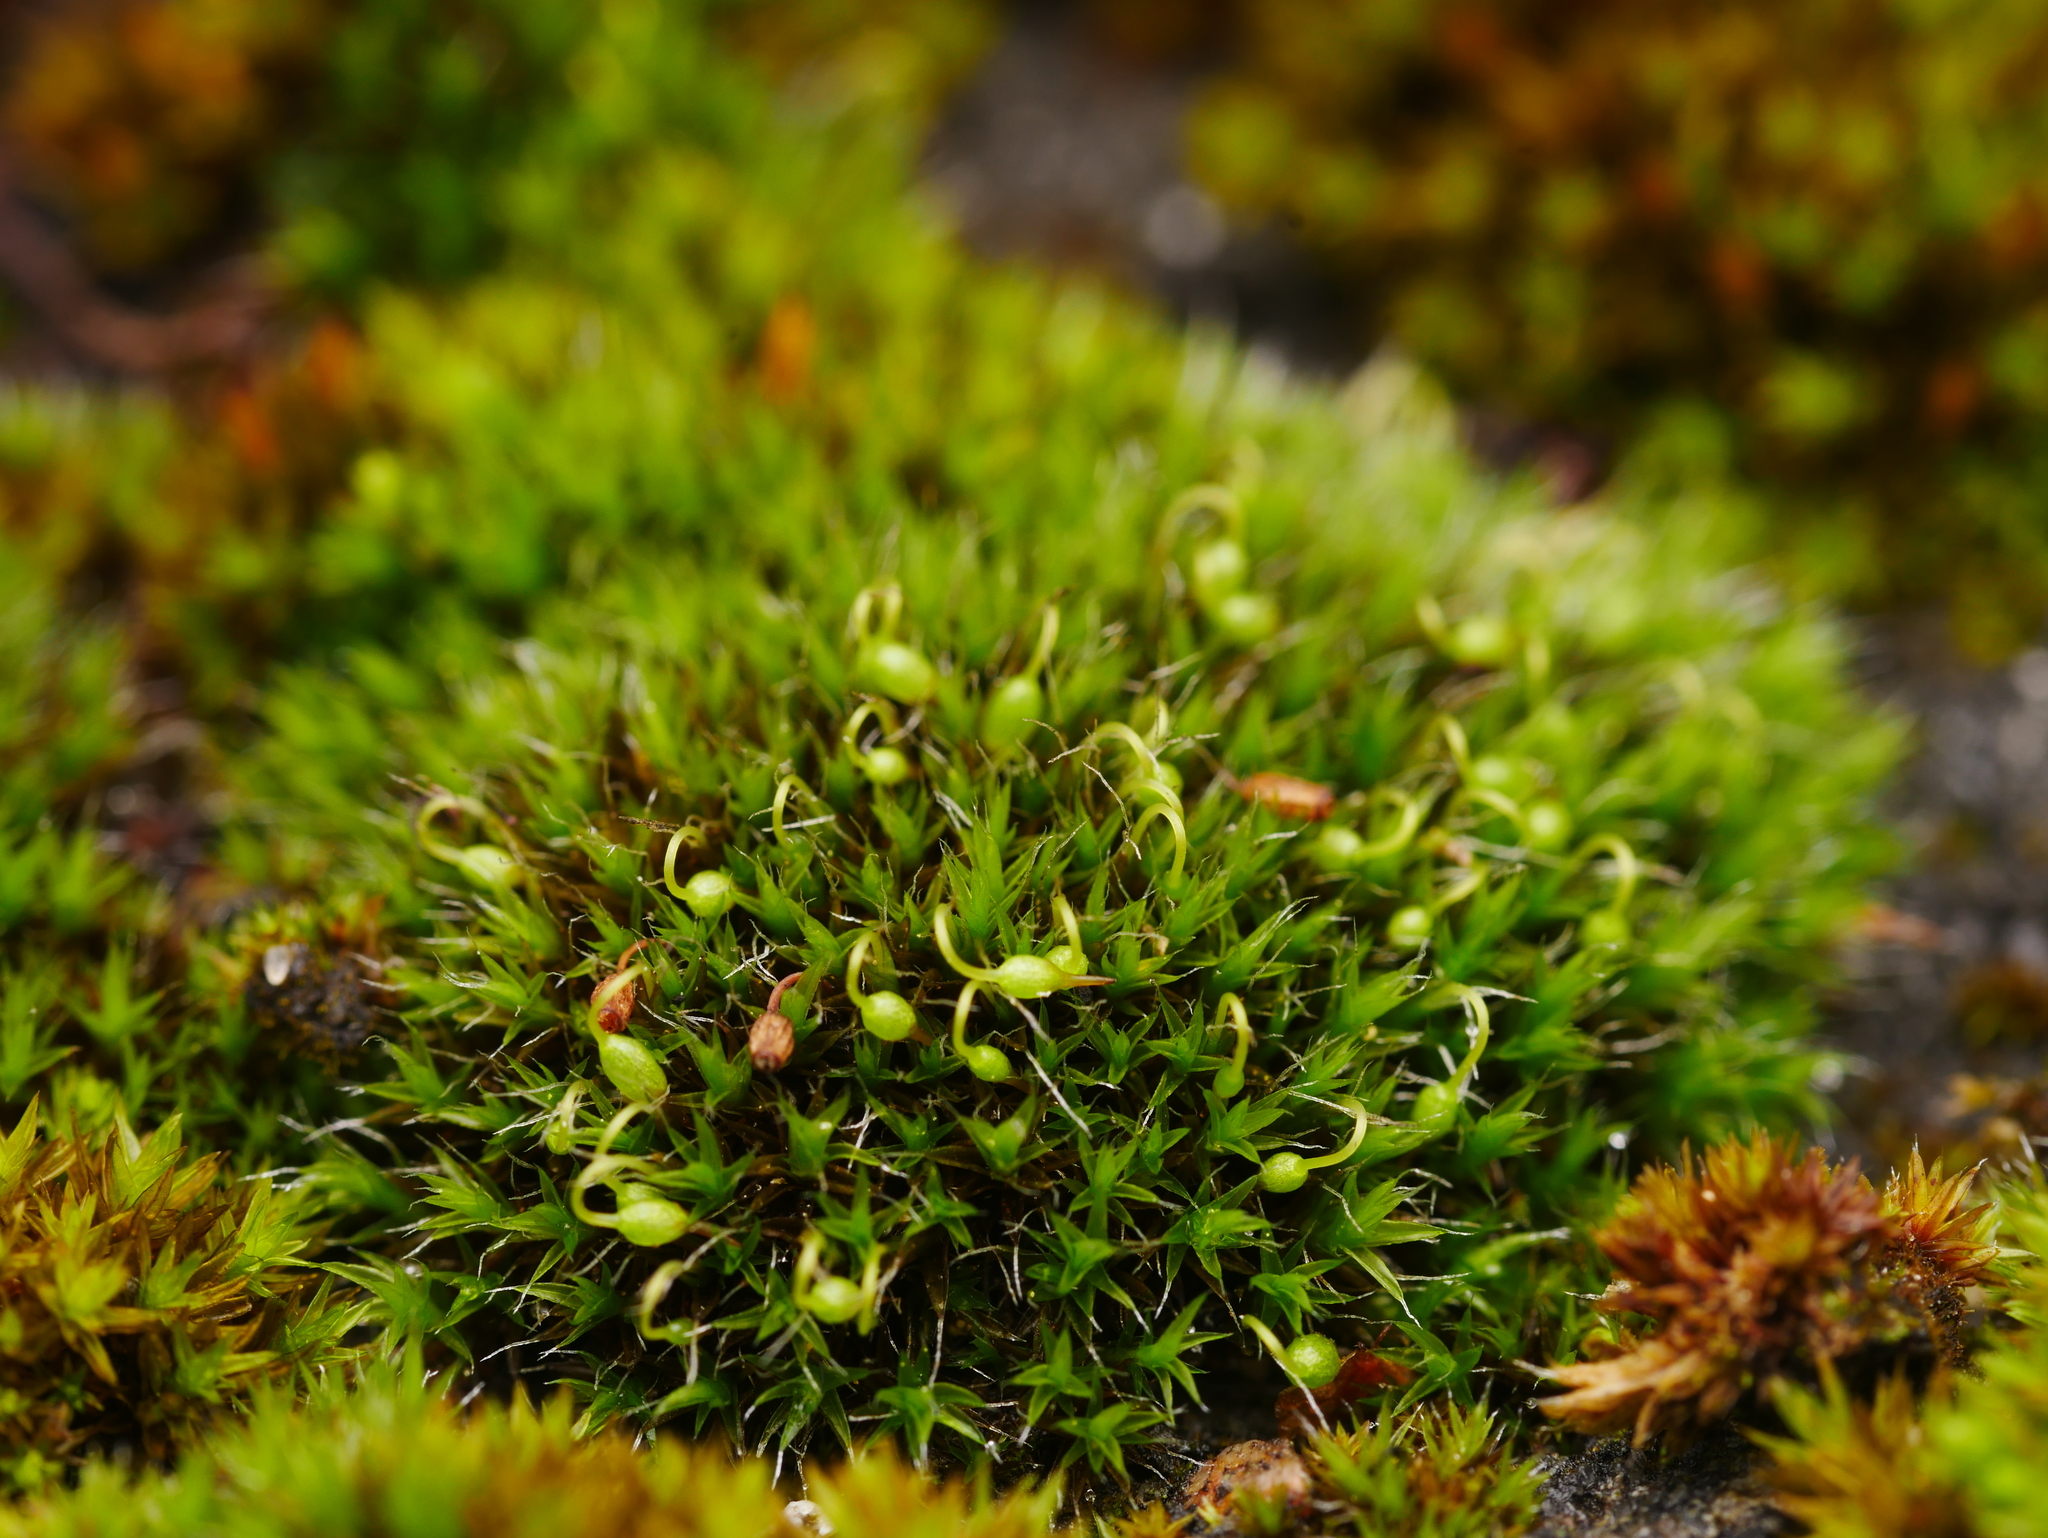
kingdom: Plantae
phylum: Bryophyta
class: Bryopsida
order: Grimmiales
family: Grimmiaceae
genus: Grimmia
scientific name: Grimmia pulvinata
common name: Grey-cushioned grimmia
